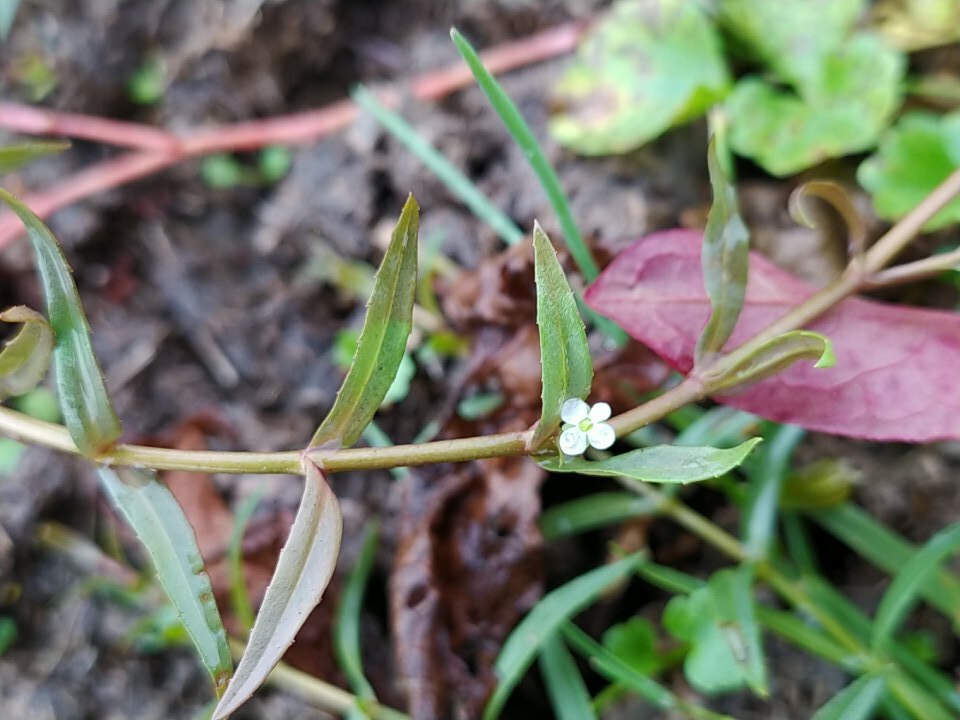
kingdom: Plantae
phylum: Tracheophyta
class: Magnoliopsida
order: Lamiales
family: Plantaginaceae
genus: Veronica
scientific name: Veronica scutellata
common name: Marsh speedwell
